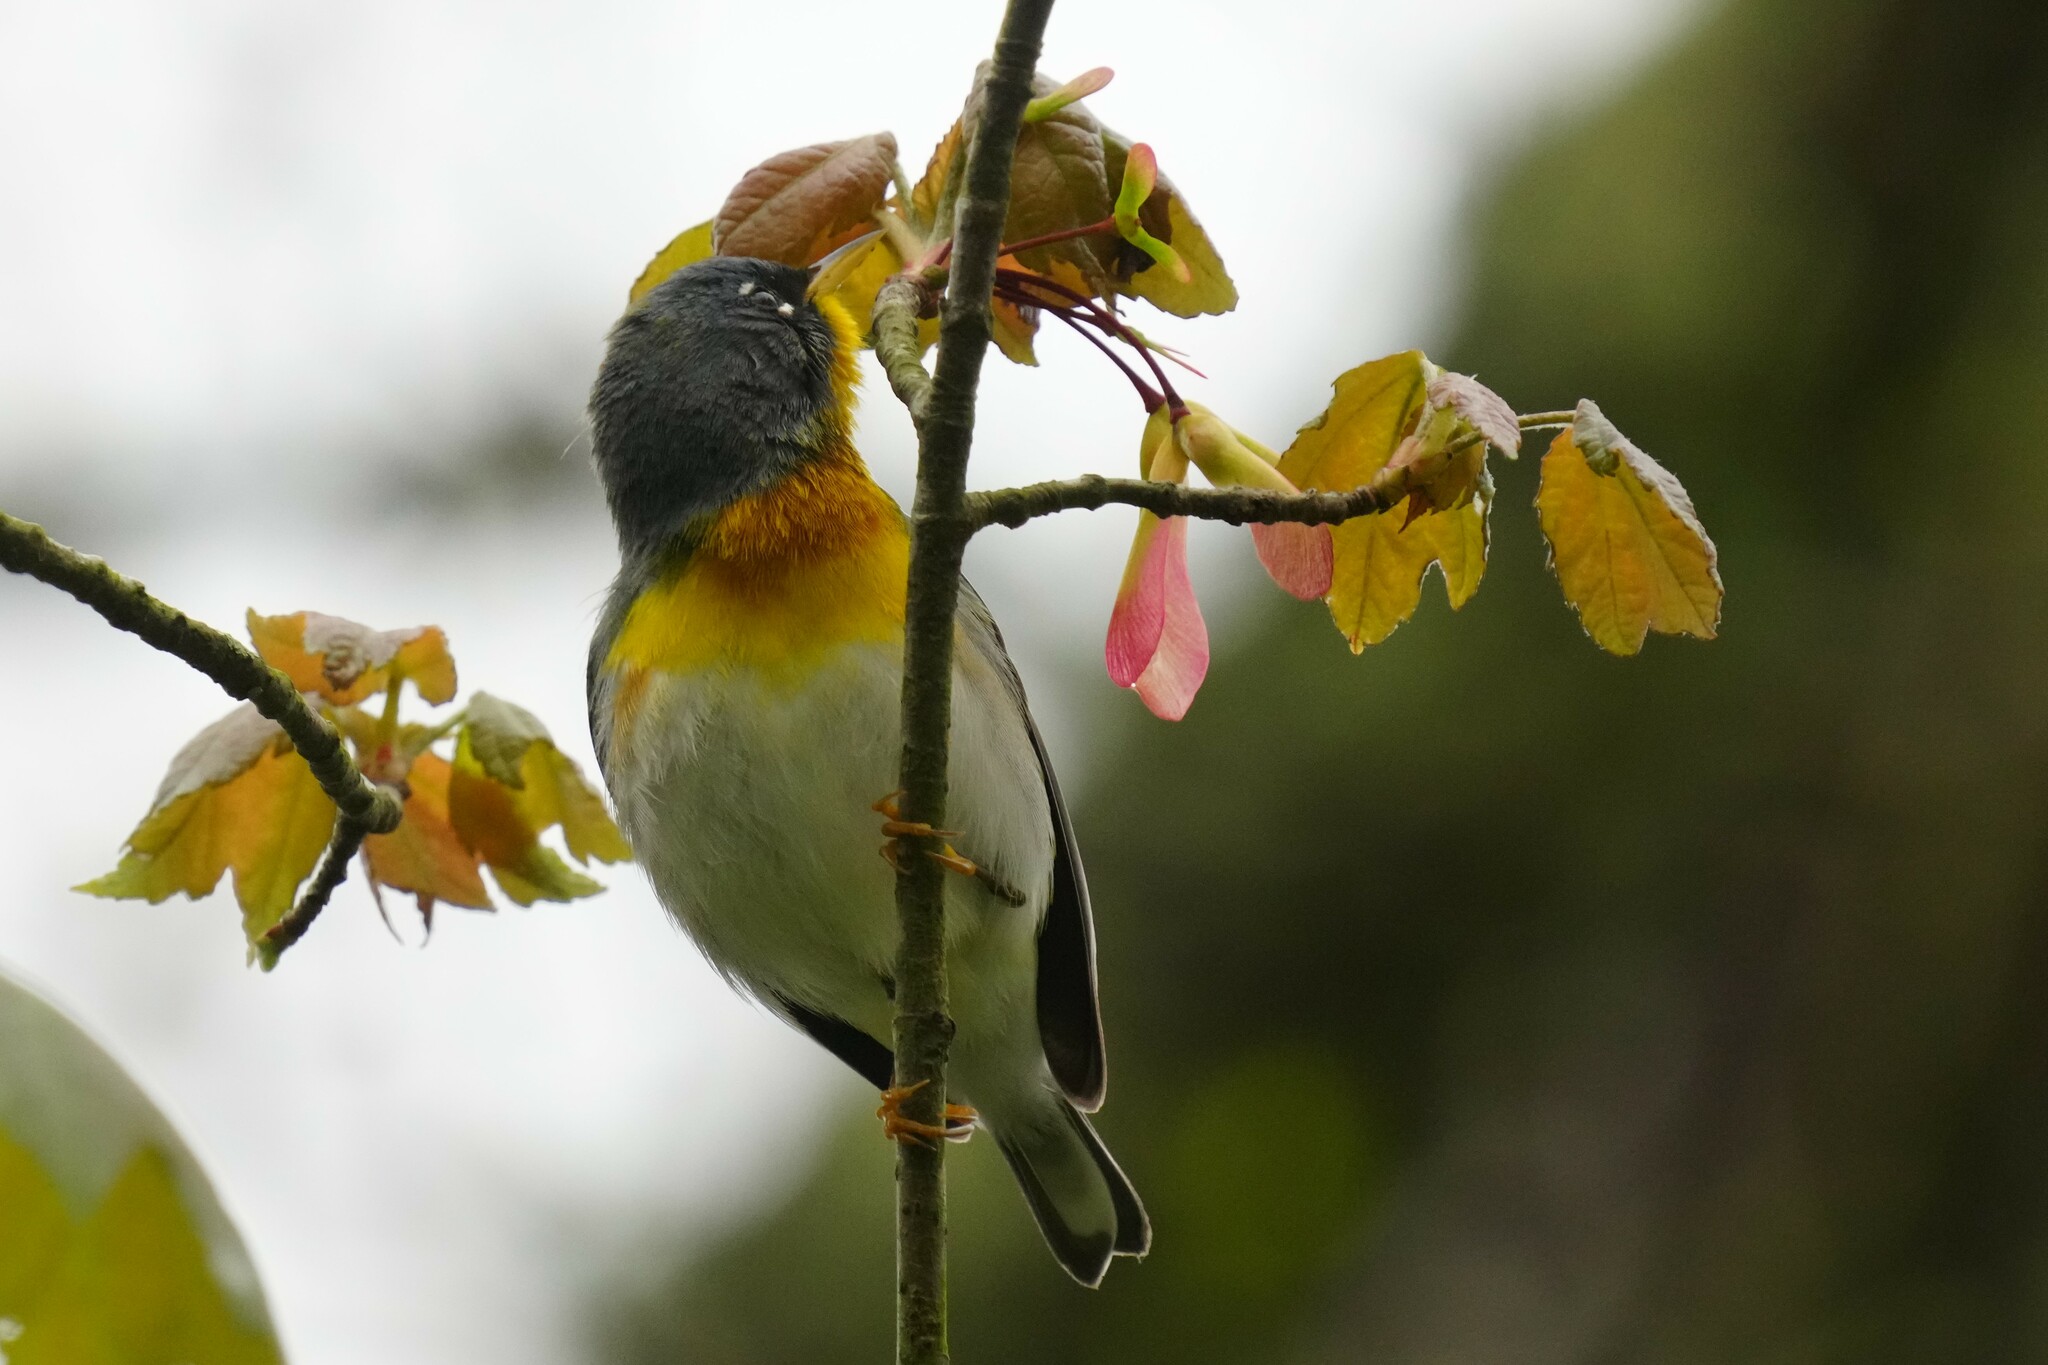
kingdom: Animalia
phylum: Chordata
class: Aves
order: Passeriformes
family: Parulidae
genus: Setophaga
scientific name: Setophaga americana
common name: Northern parula
